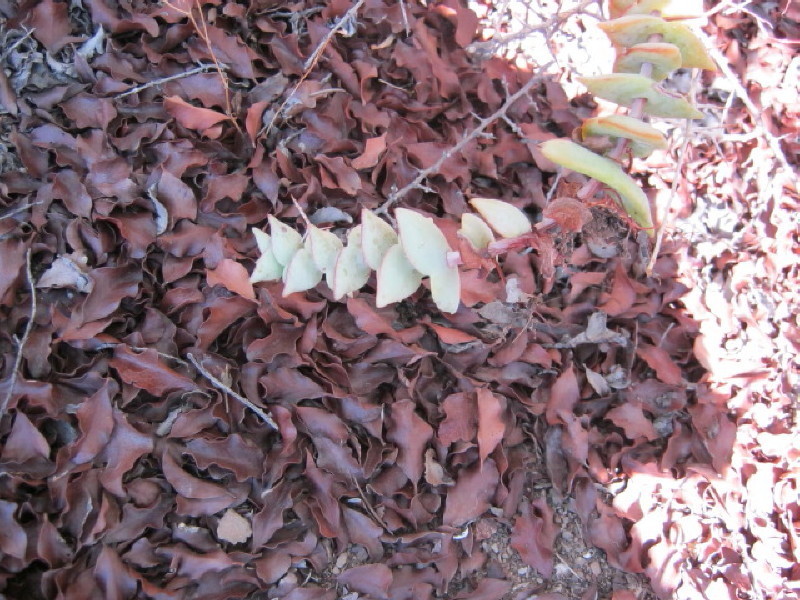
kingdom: Plantae
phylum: Tracheophyta
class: Magnoliopsida
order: Saxifragales
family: Crassulaceae
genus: Crassula
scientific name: Crassula perforata
